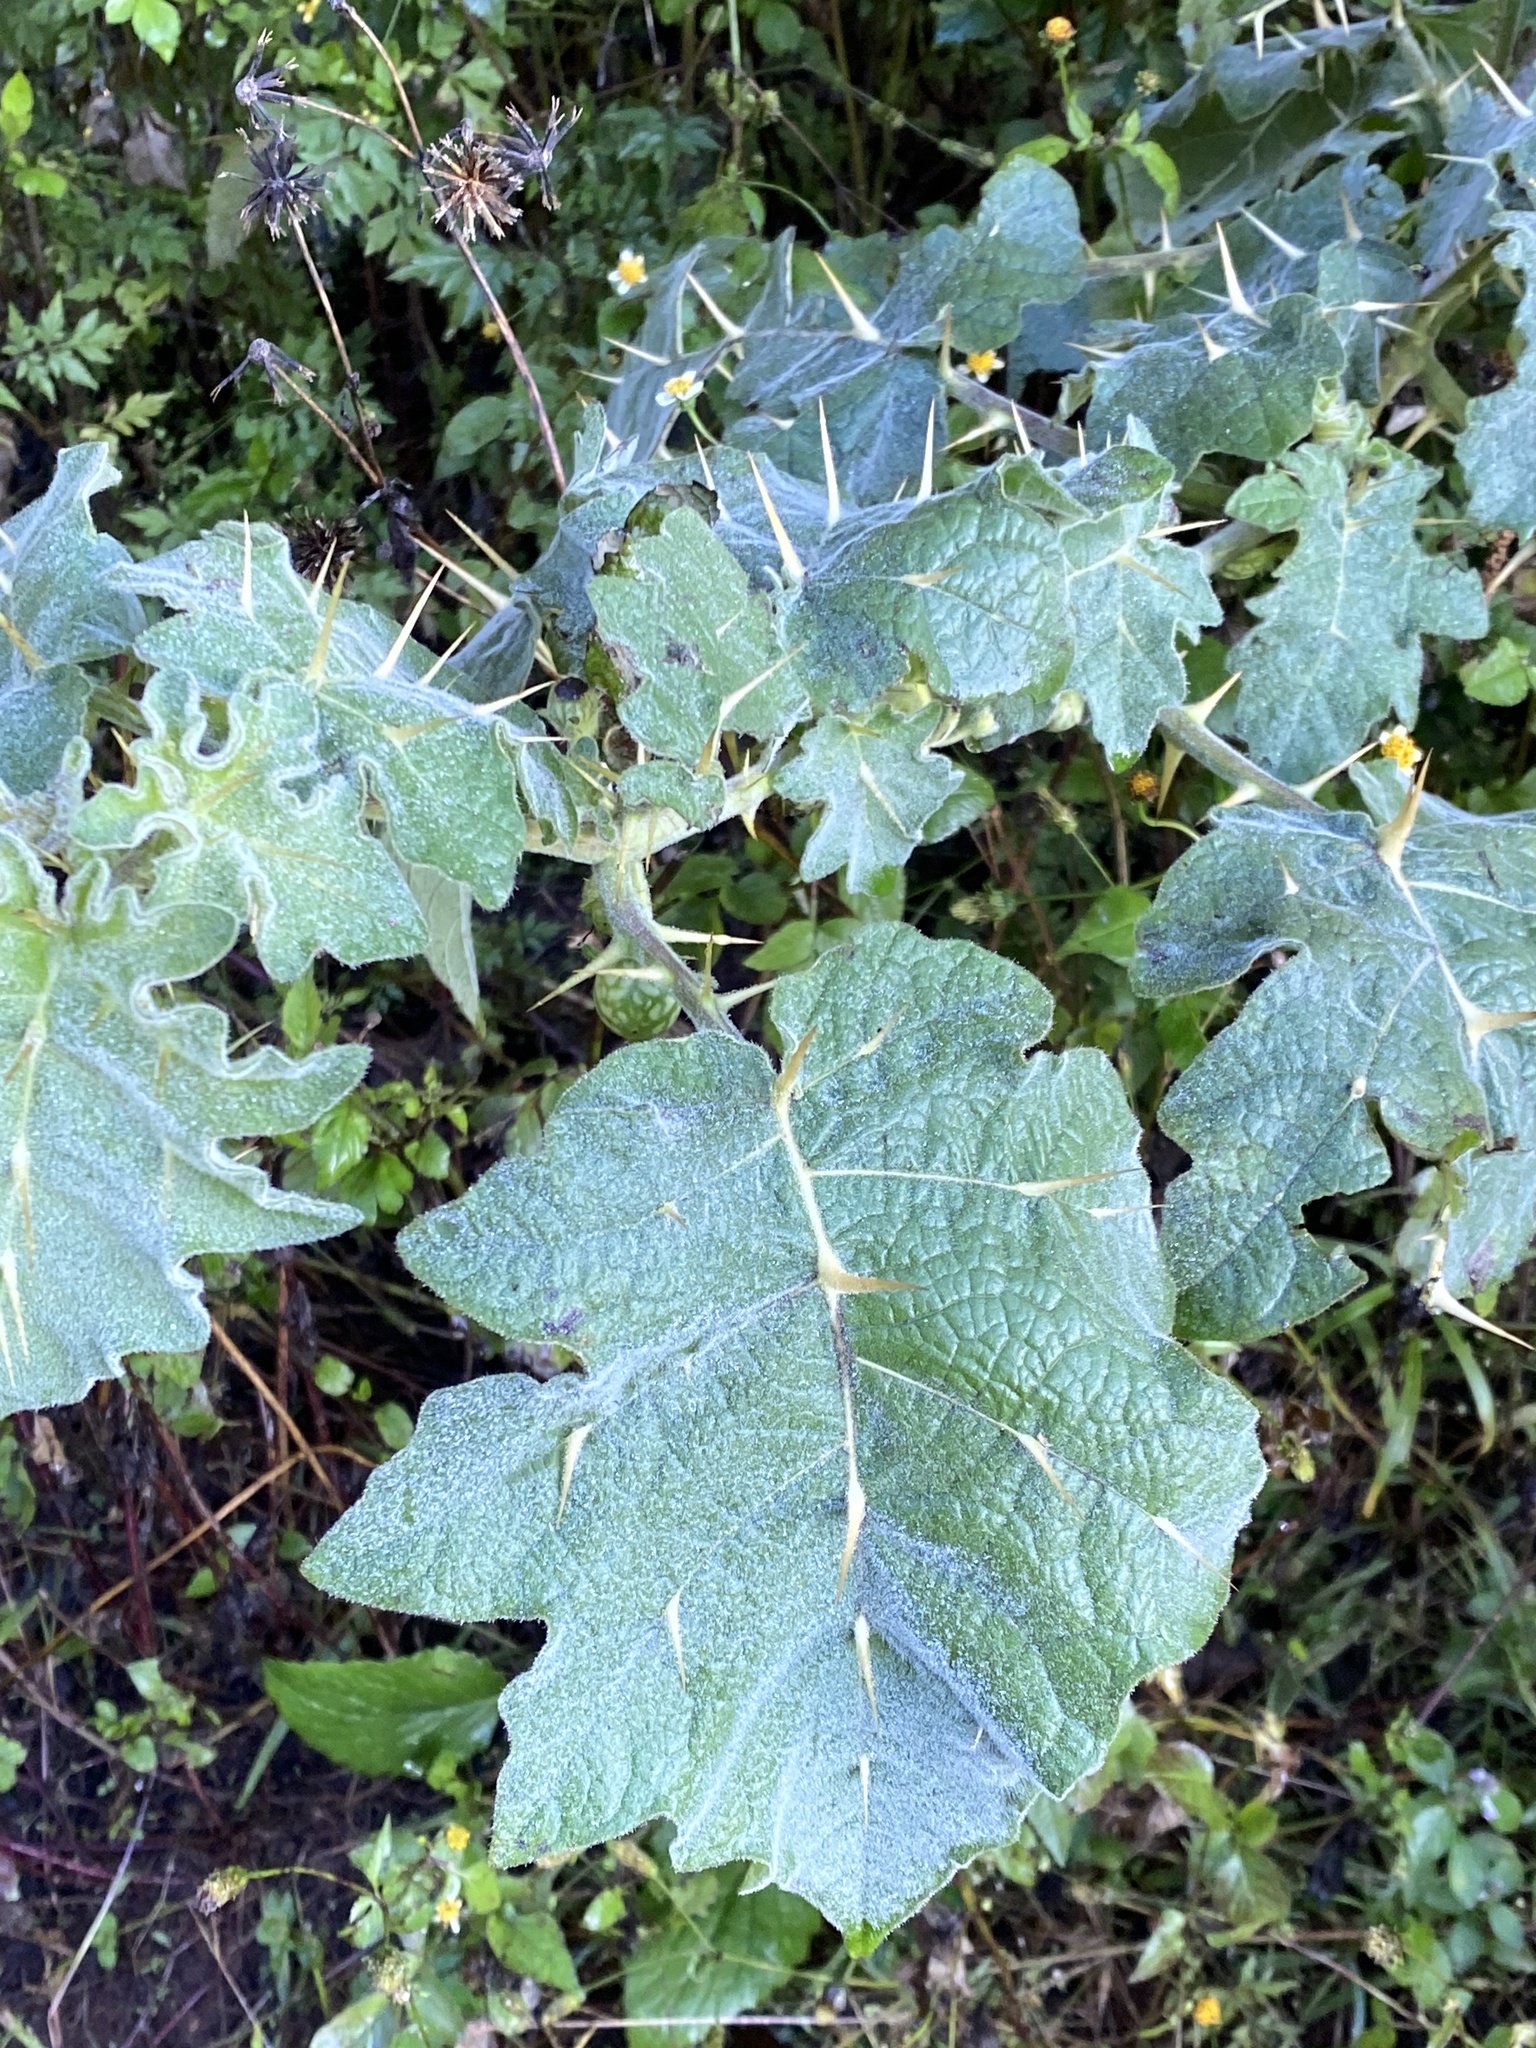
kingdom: Plantae
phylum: Tracheophyta
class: Magnoliopsida
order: Solanales
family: Solanaceae
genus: Solanum
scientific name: Solanum viarum
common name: Tropical soda apple
